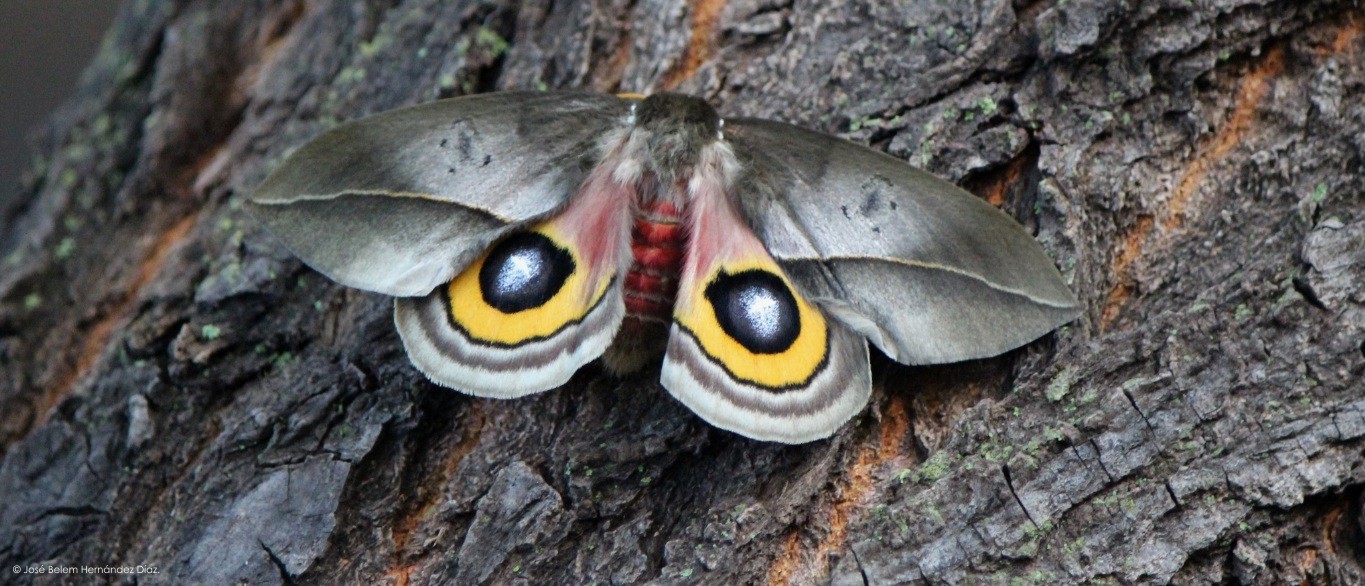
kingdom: Animalia
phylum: Arthropoda
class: Insecta
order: Lepidoptera
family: Saturniidae
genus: Automeris
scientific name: Automeris zozine
